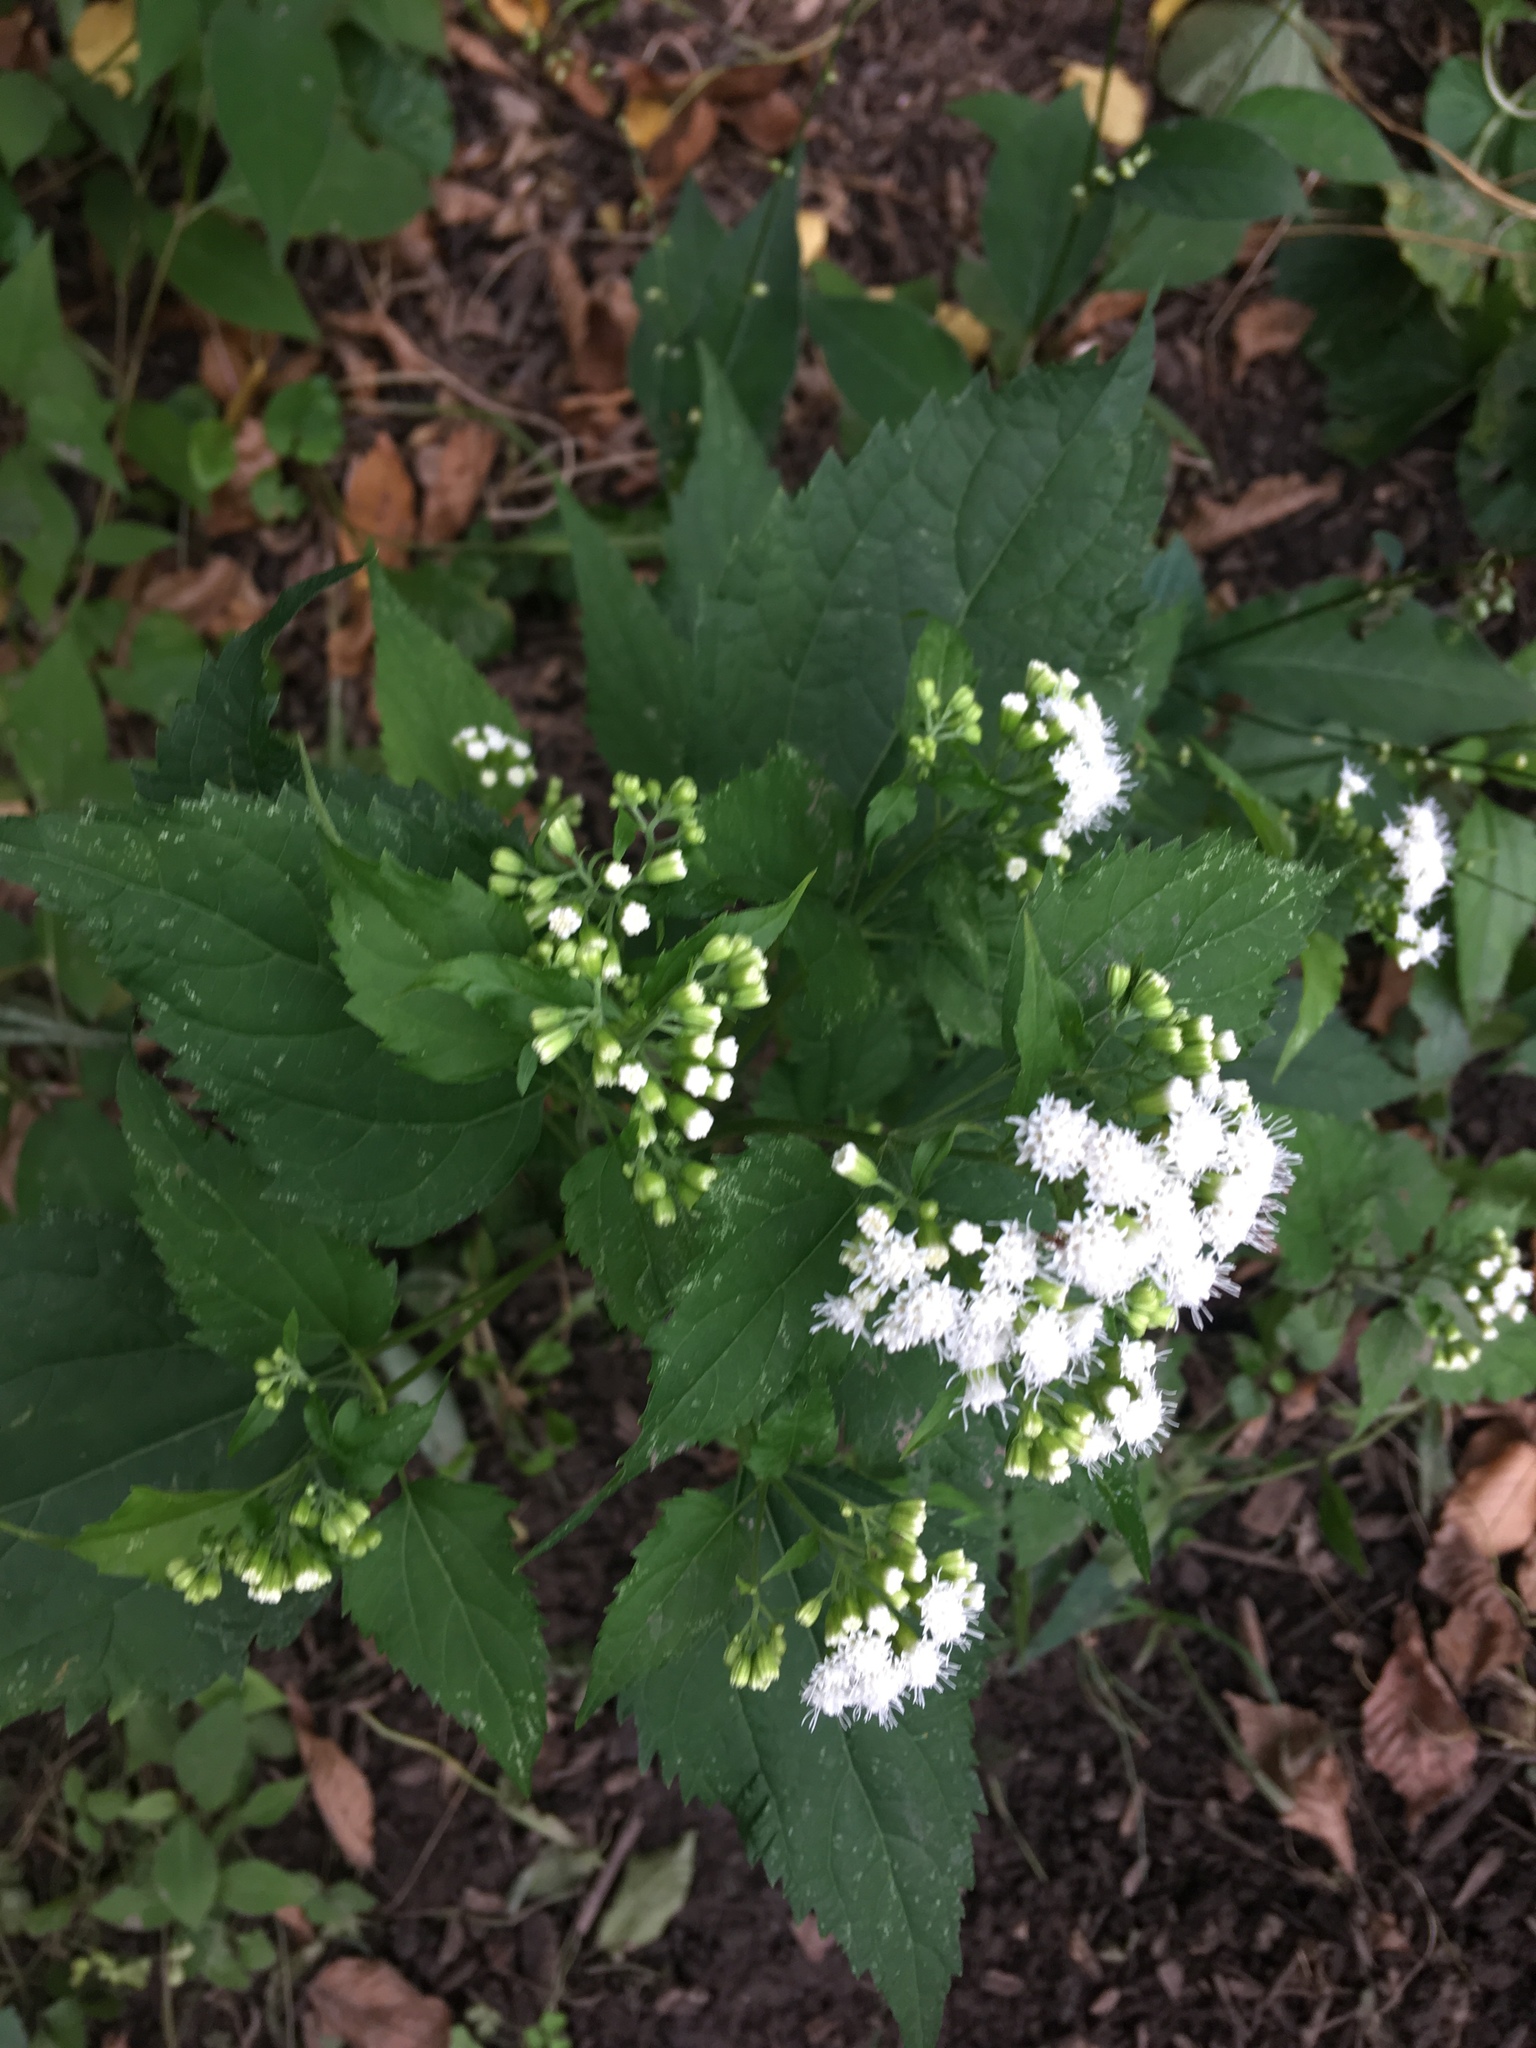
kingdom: Plantae
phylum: Tracheophyta
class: Magnoliopsida
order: Asterales
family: Asteraceae
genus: Ageratina
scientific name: Ageratina altissima
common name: White snakeroot
